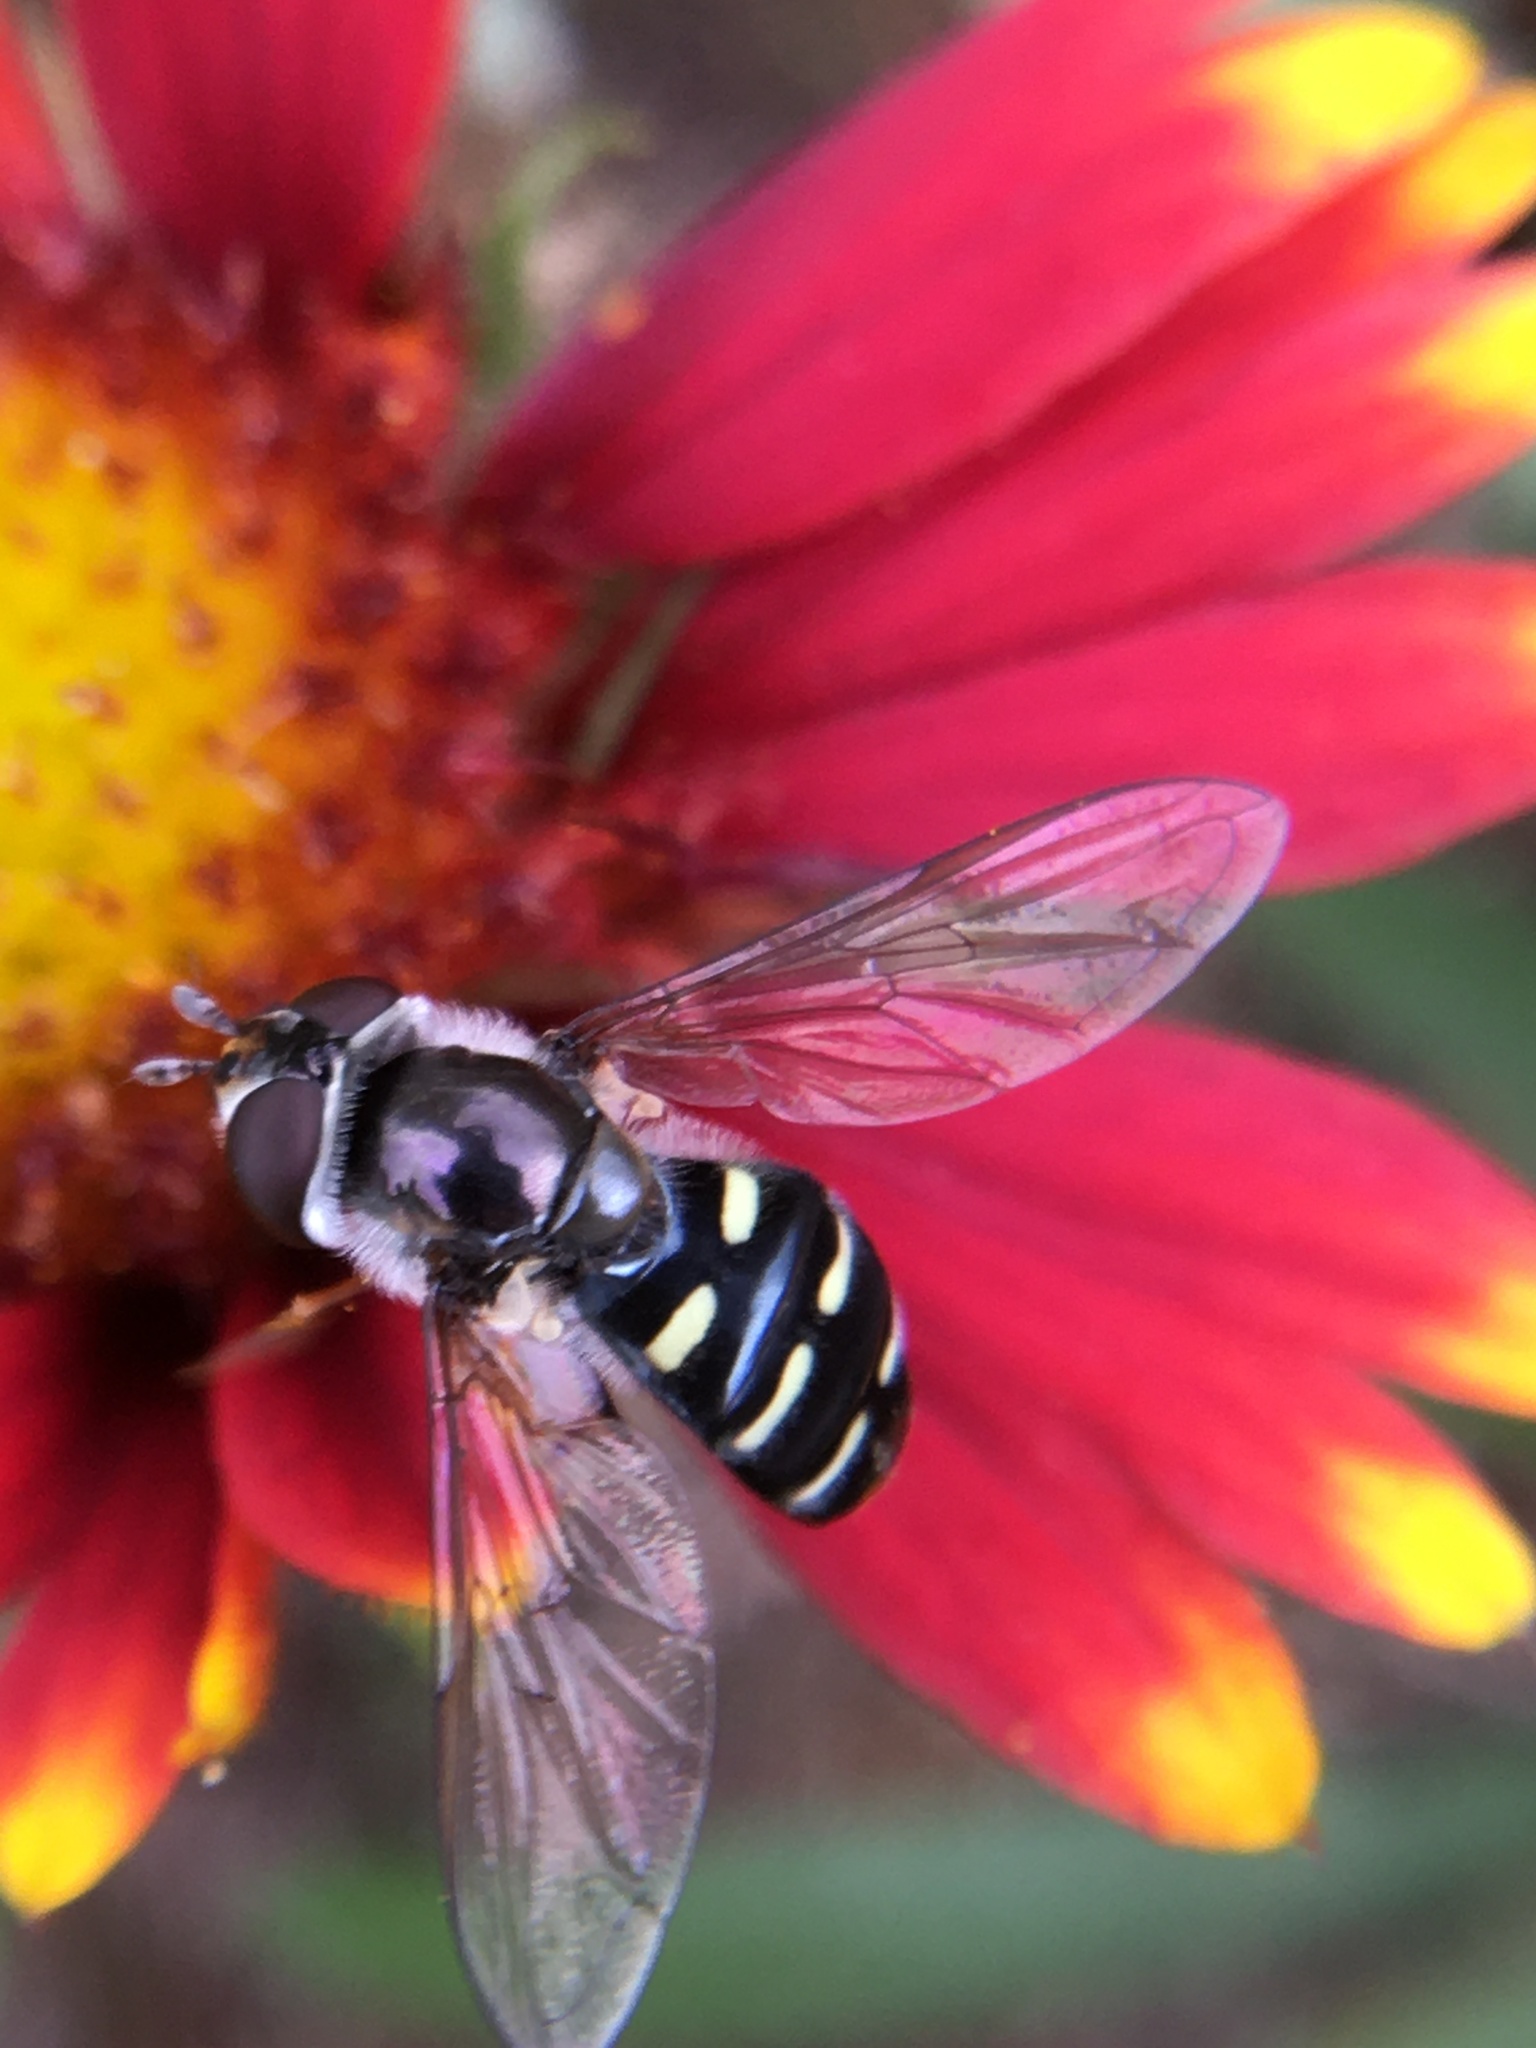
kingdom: Animalia
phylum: Arthropoda
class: Insecta
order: Diptera
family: Syrphidae
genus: Eupeodes
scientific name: Eupeodes perplexus
